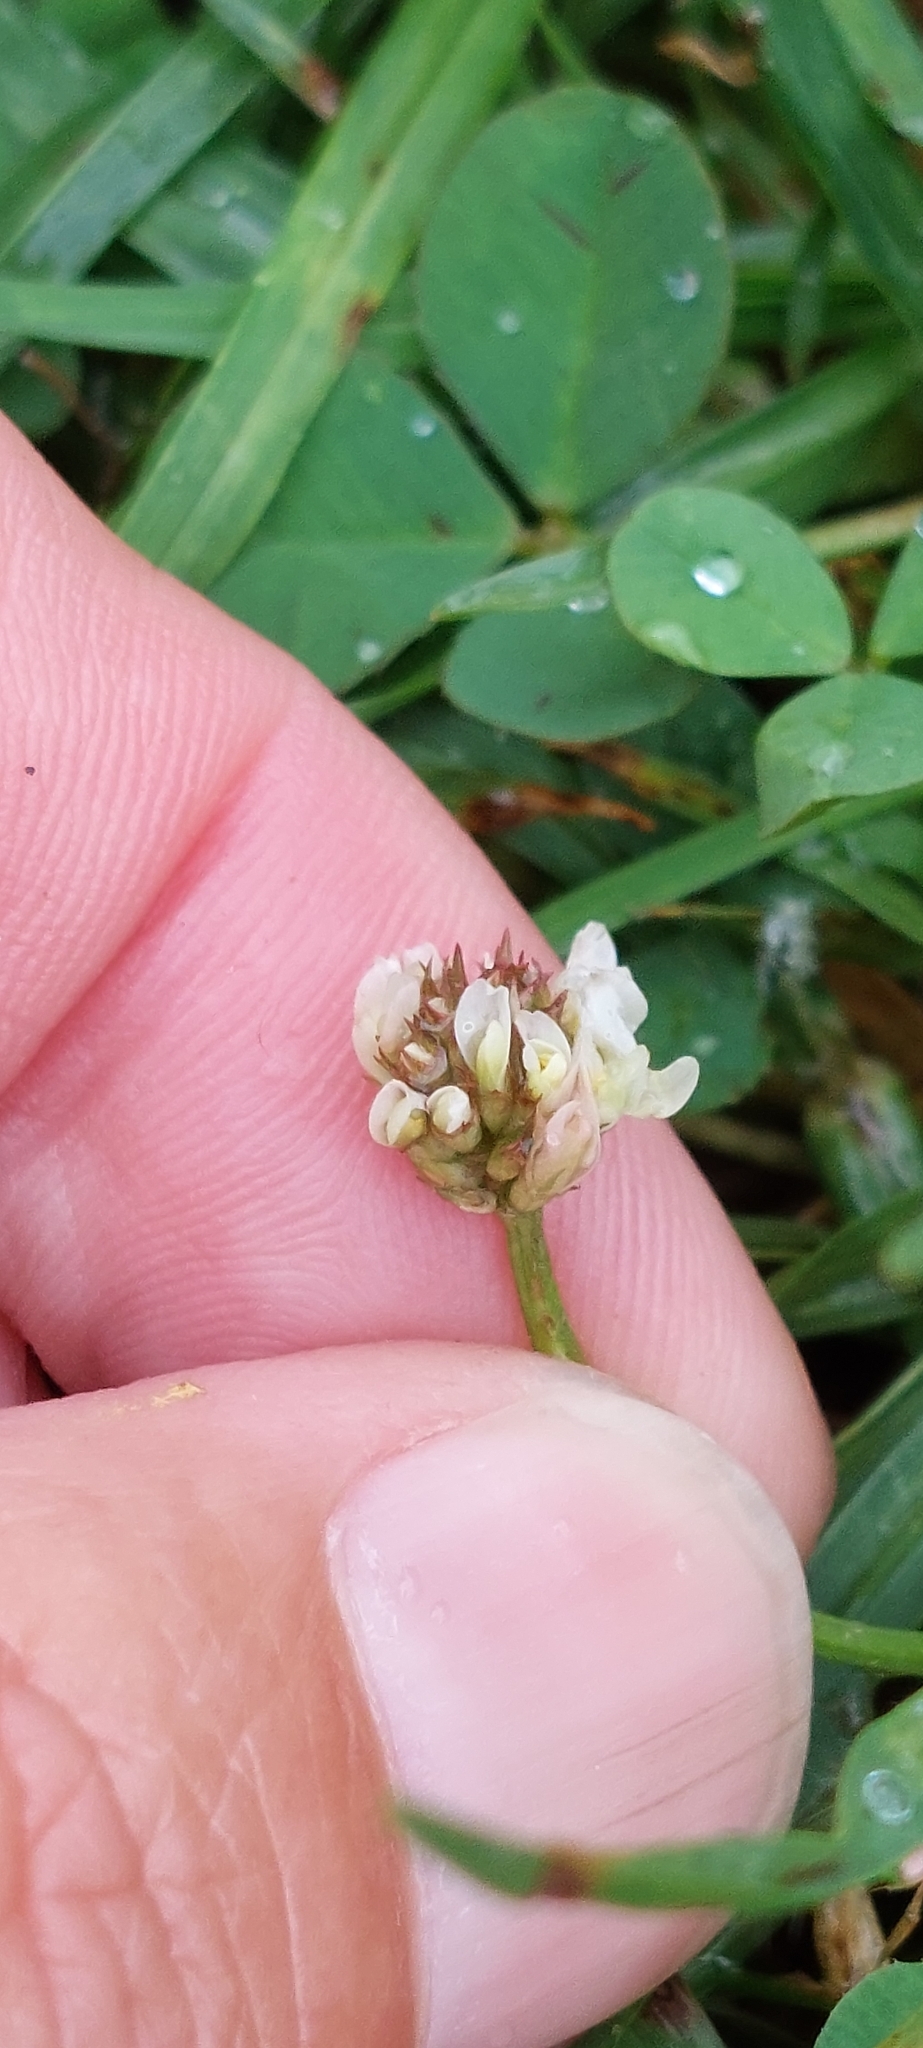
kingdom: Plantae
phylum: Tracheophyta
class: Magnoliopsida
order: Fabales
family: Fabaceae
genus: Trifolium
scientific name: Trifolium repens
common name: White clover
